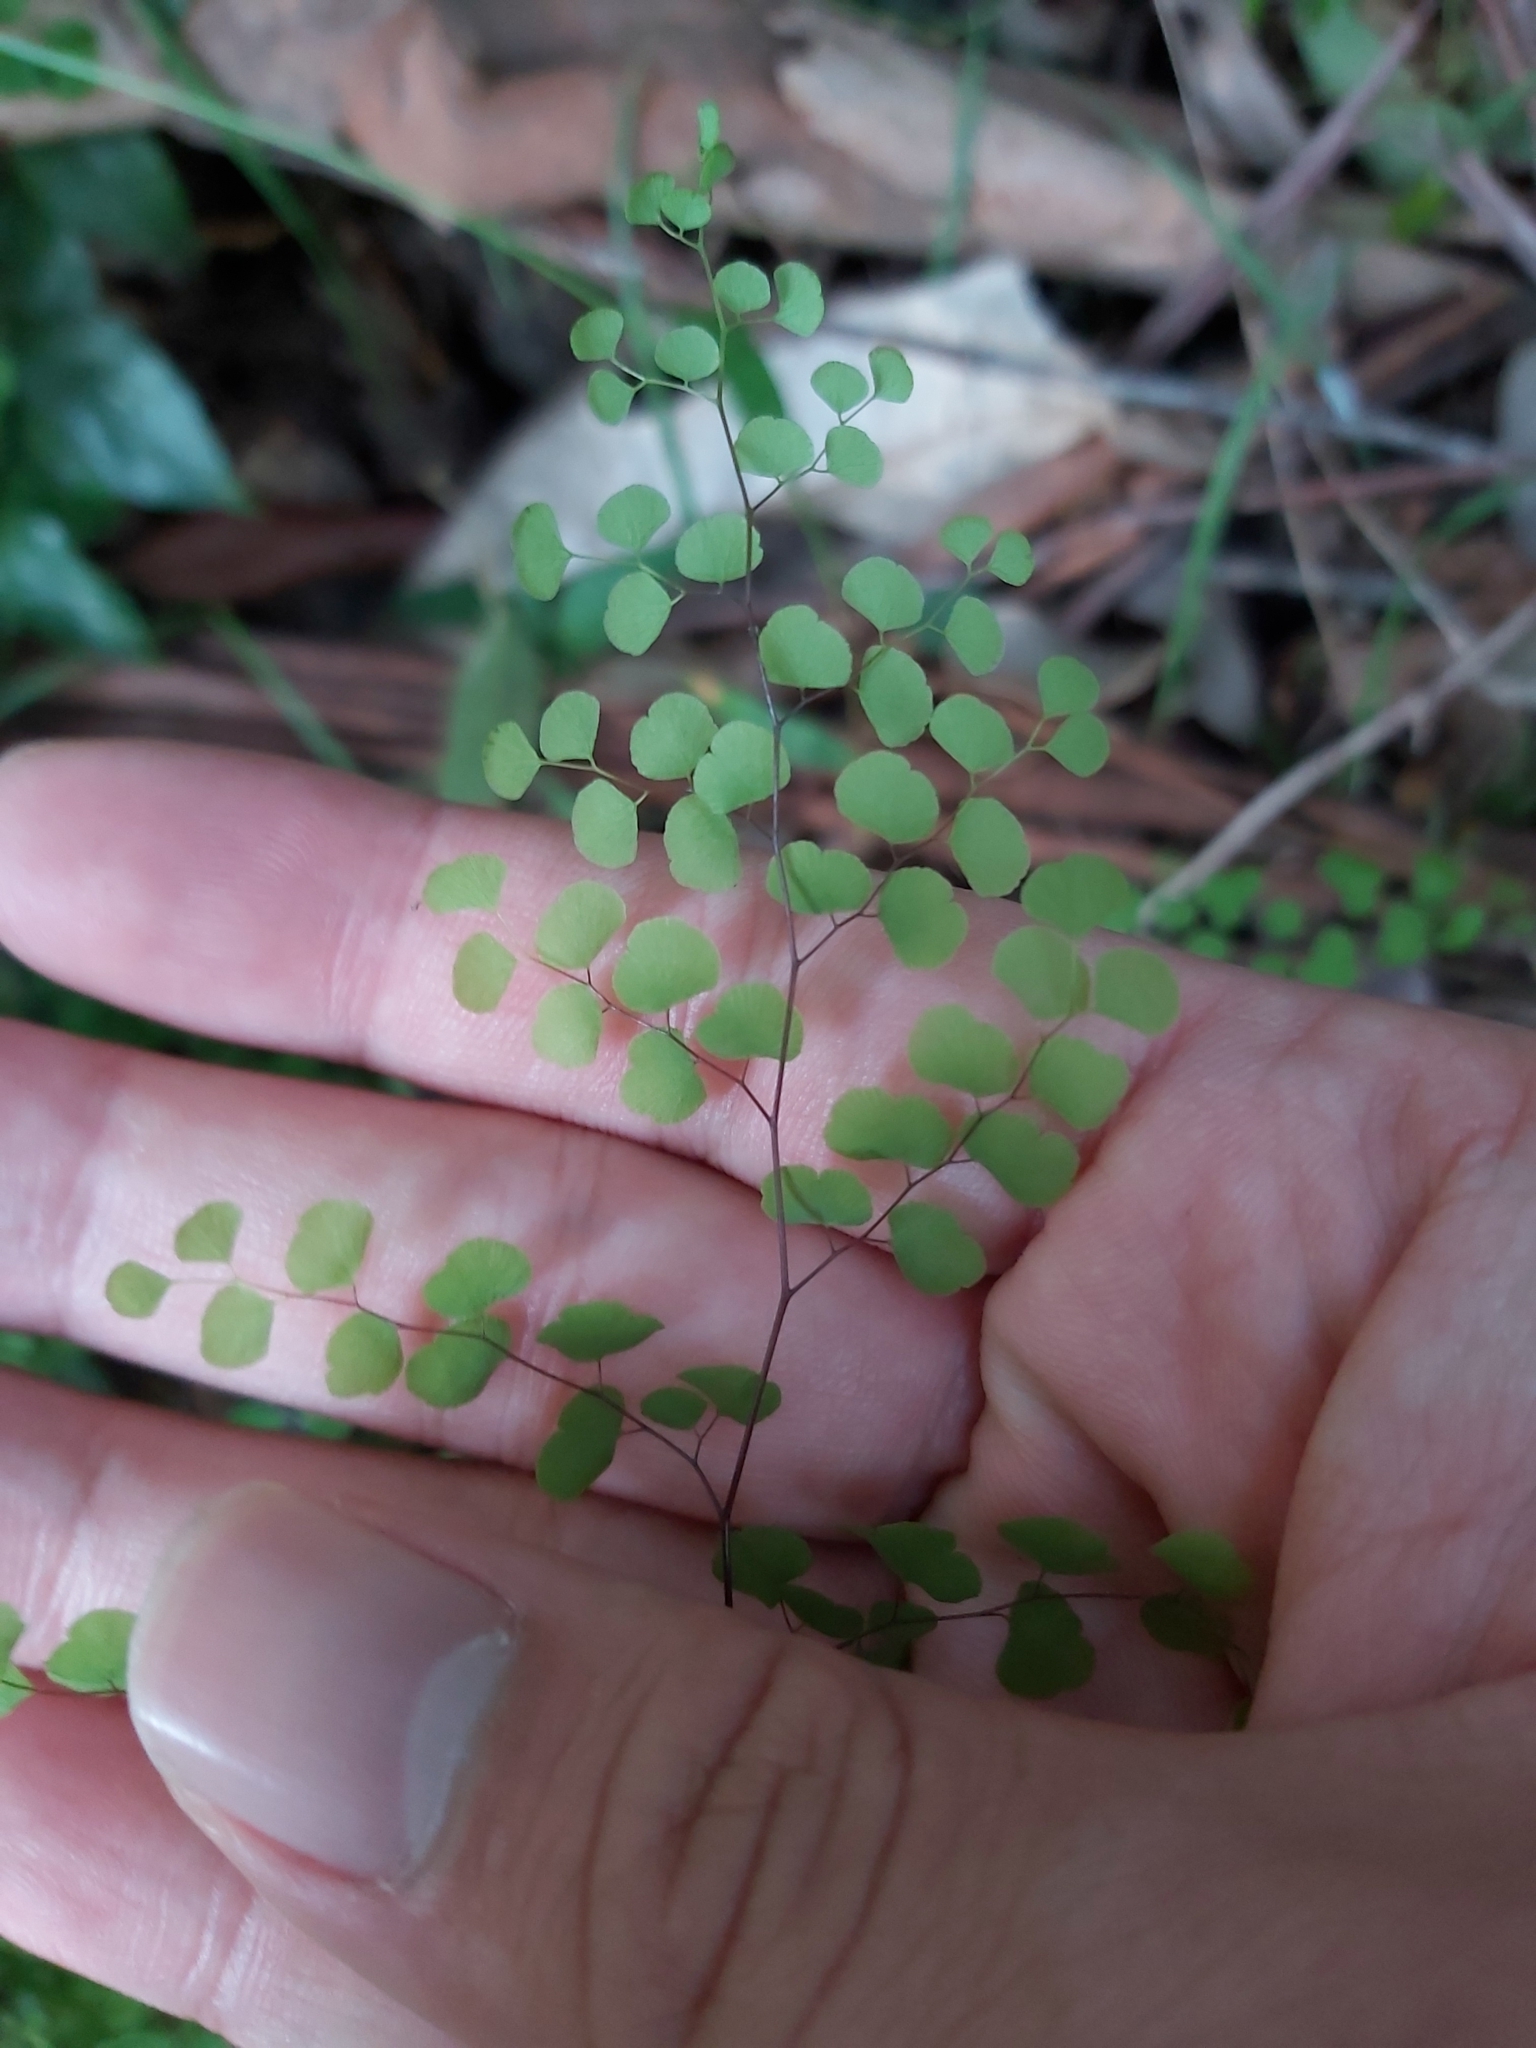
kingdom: Plantae
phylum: Tracheophyta
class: Polypodiopsida
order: Polypodiales
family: Pteridaceae
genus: Adiantum
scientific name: Adiantum aethiopicum
